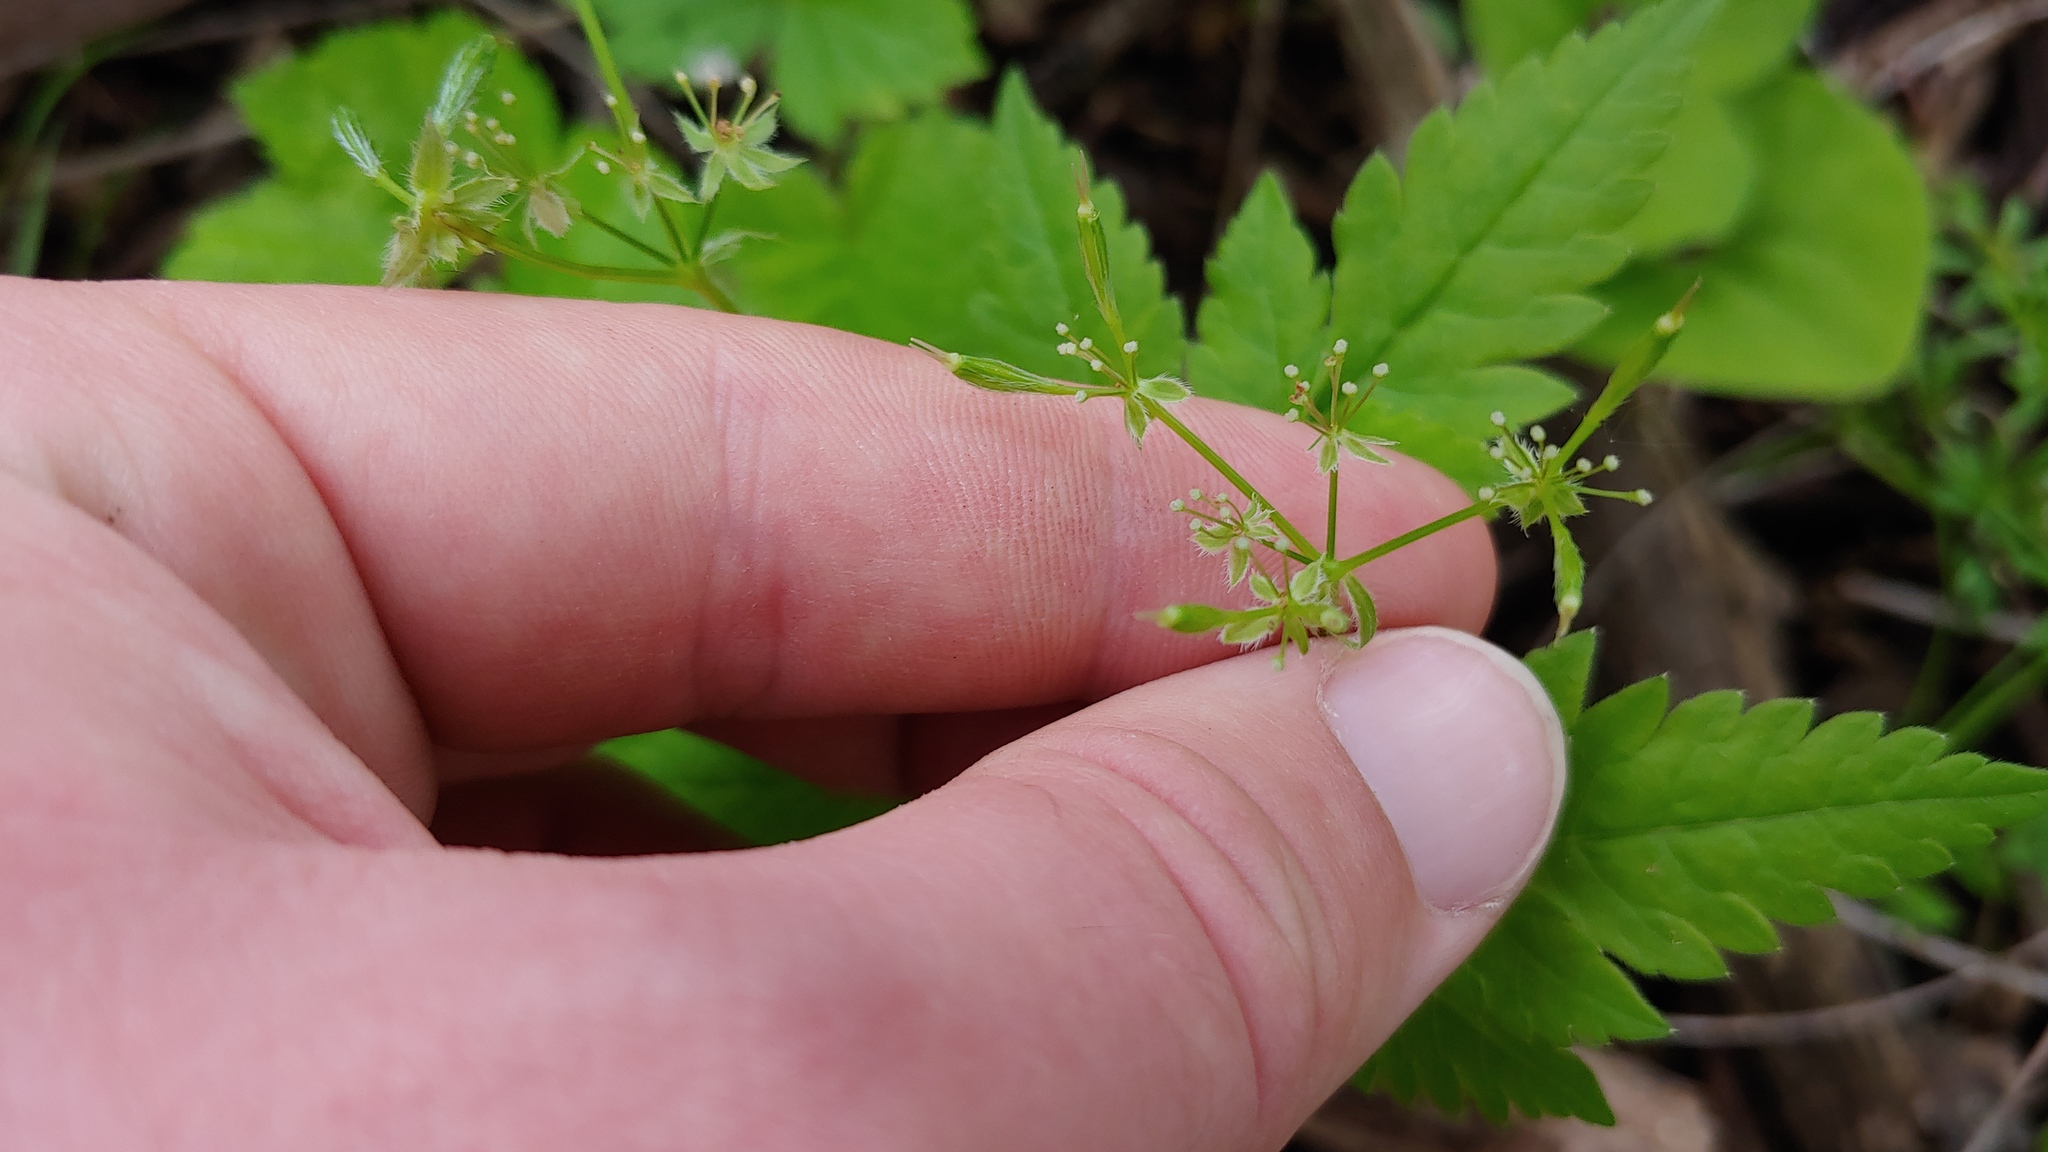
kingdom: Plantae
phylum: Tracheophyta
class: Magnoliopsida
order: Apiales
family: Apiaceae
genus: Osmorhiza
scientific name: Osmorhiza longistylis
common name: Smooth sweet cicely
